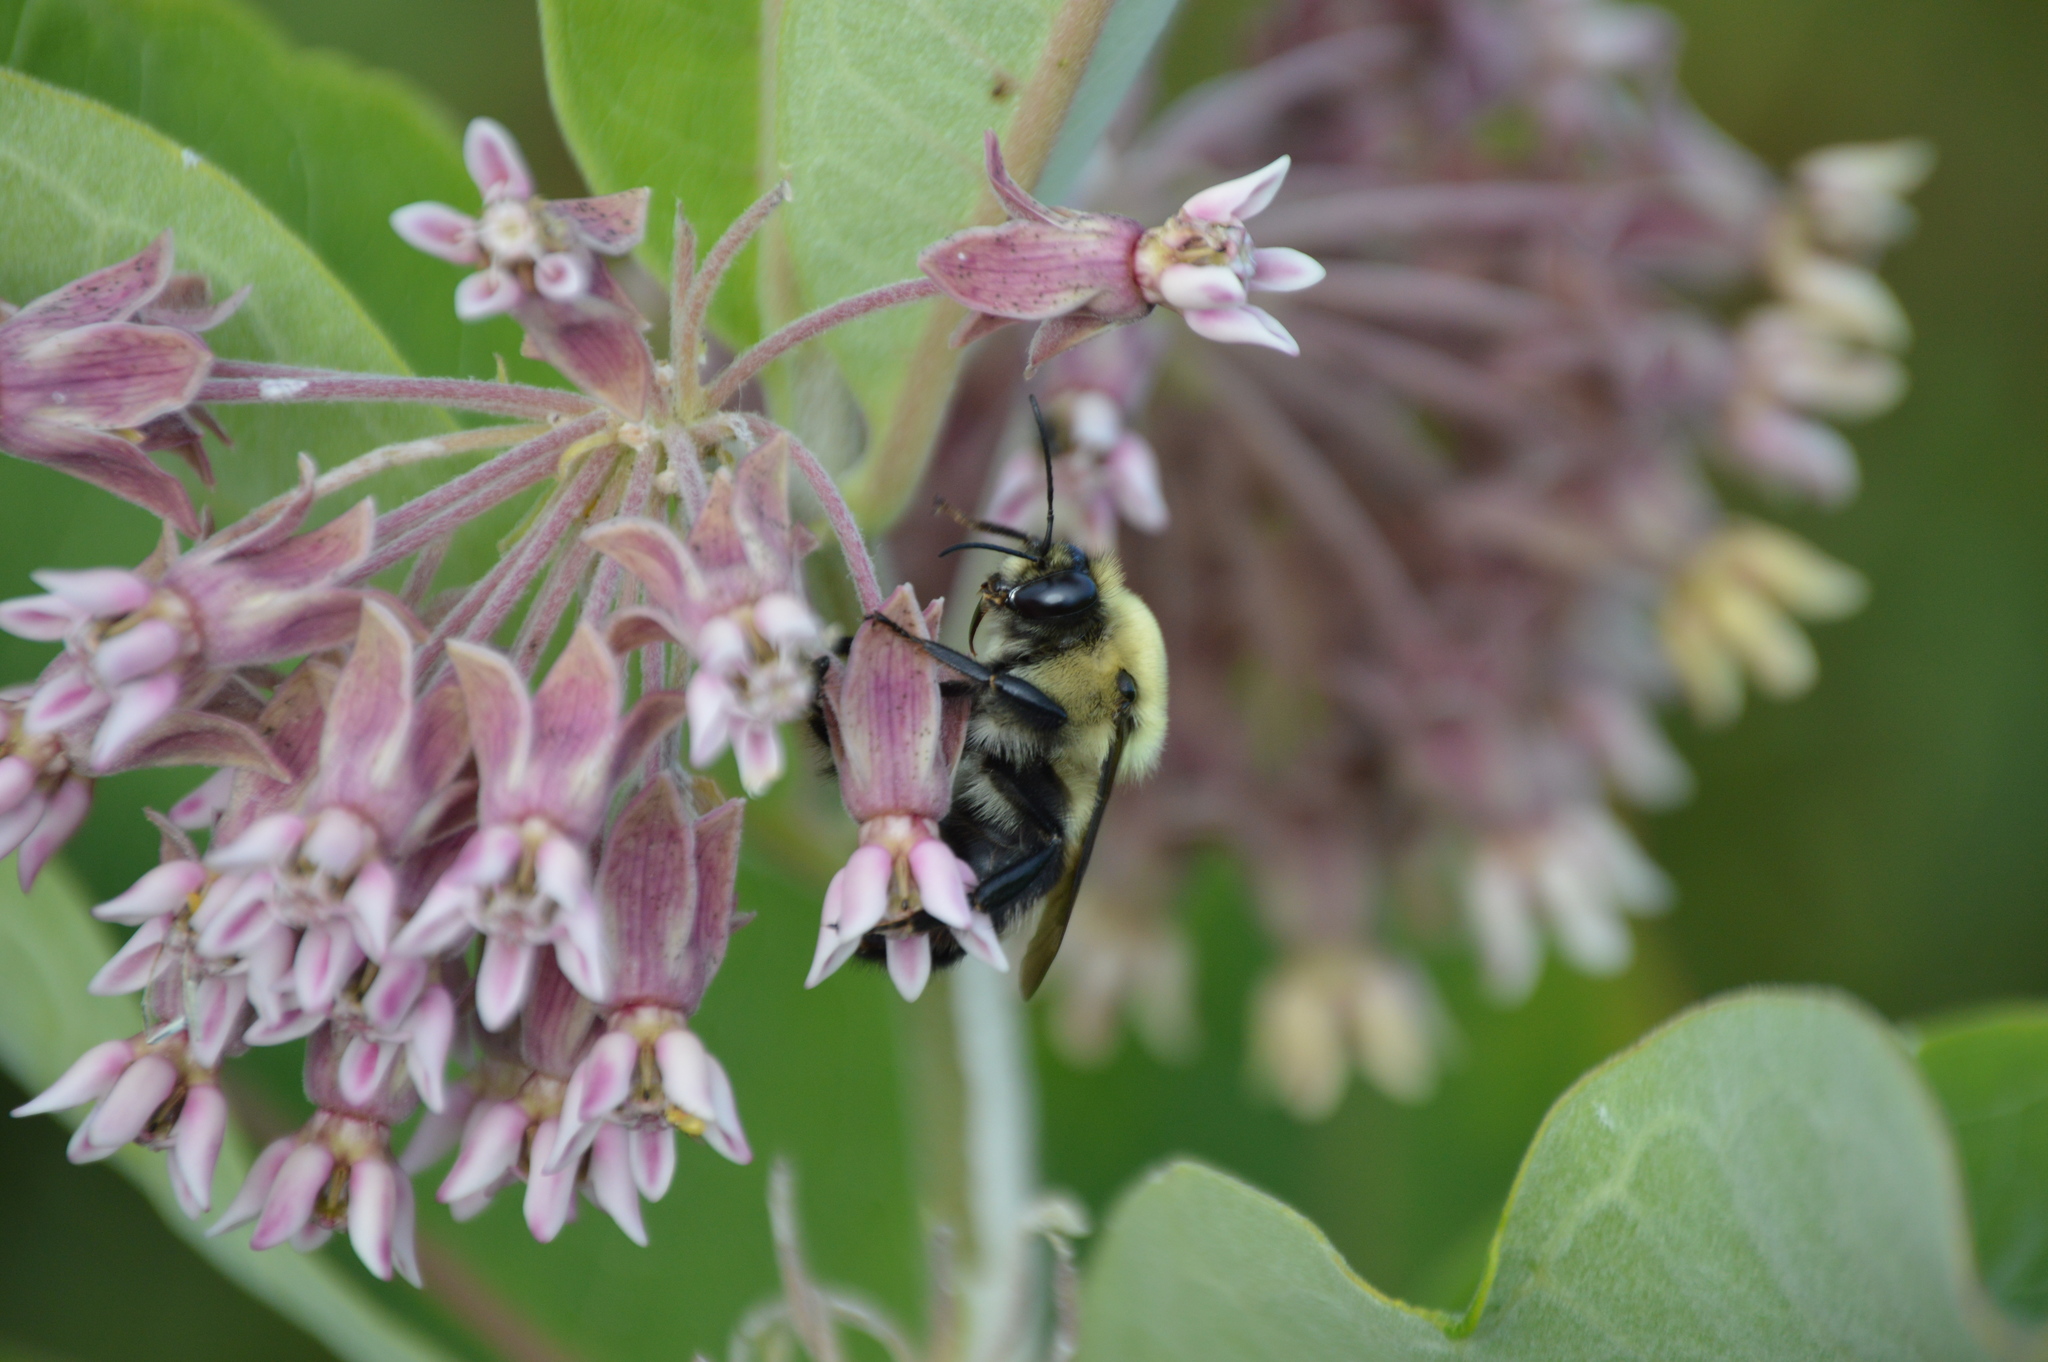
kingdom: Animalia
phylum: Arthropoda
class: Insecta
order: Hymenoptera
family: Apidae
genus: Bombus
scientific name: Bombus griseocollis
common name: Brown-belted bumble bee
